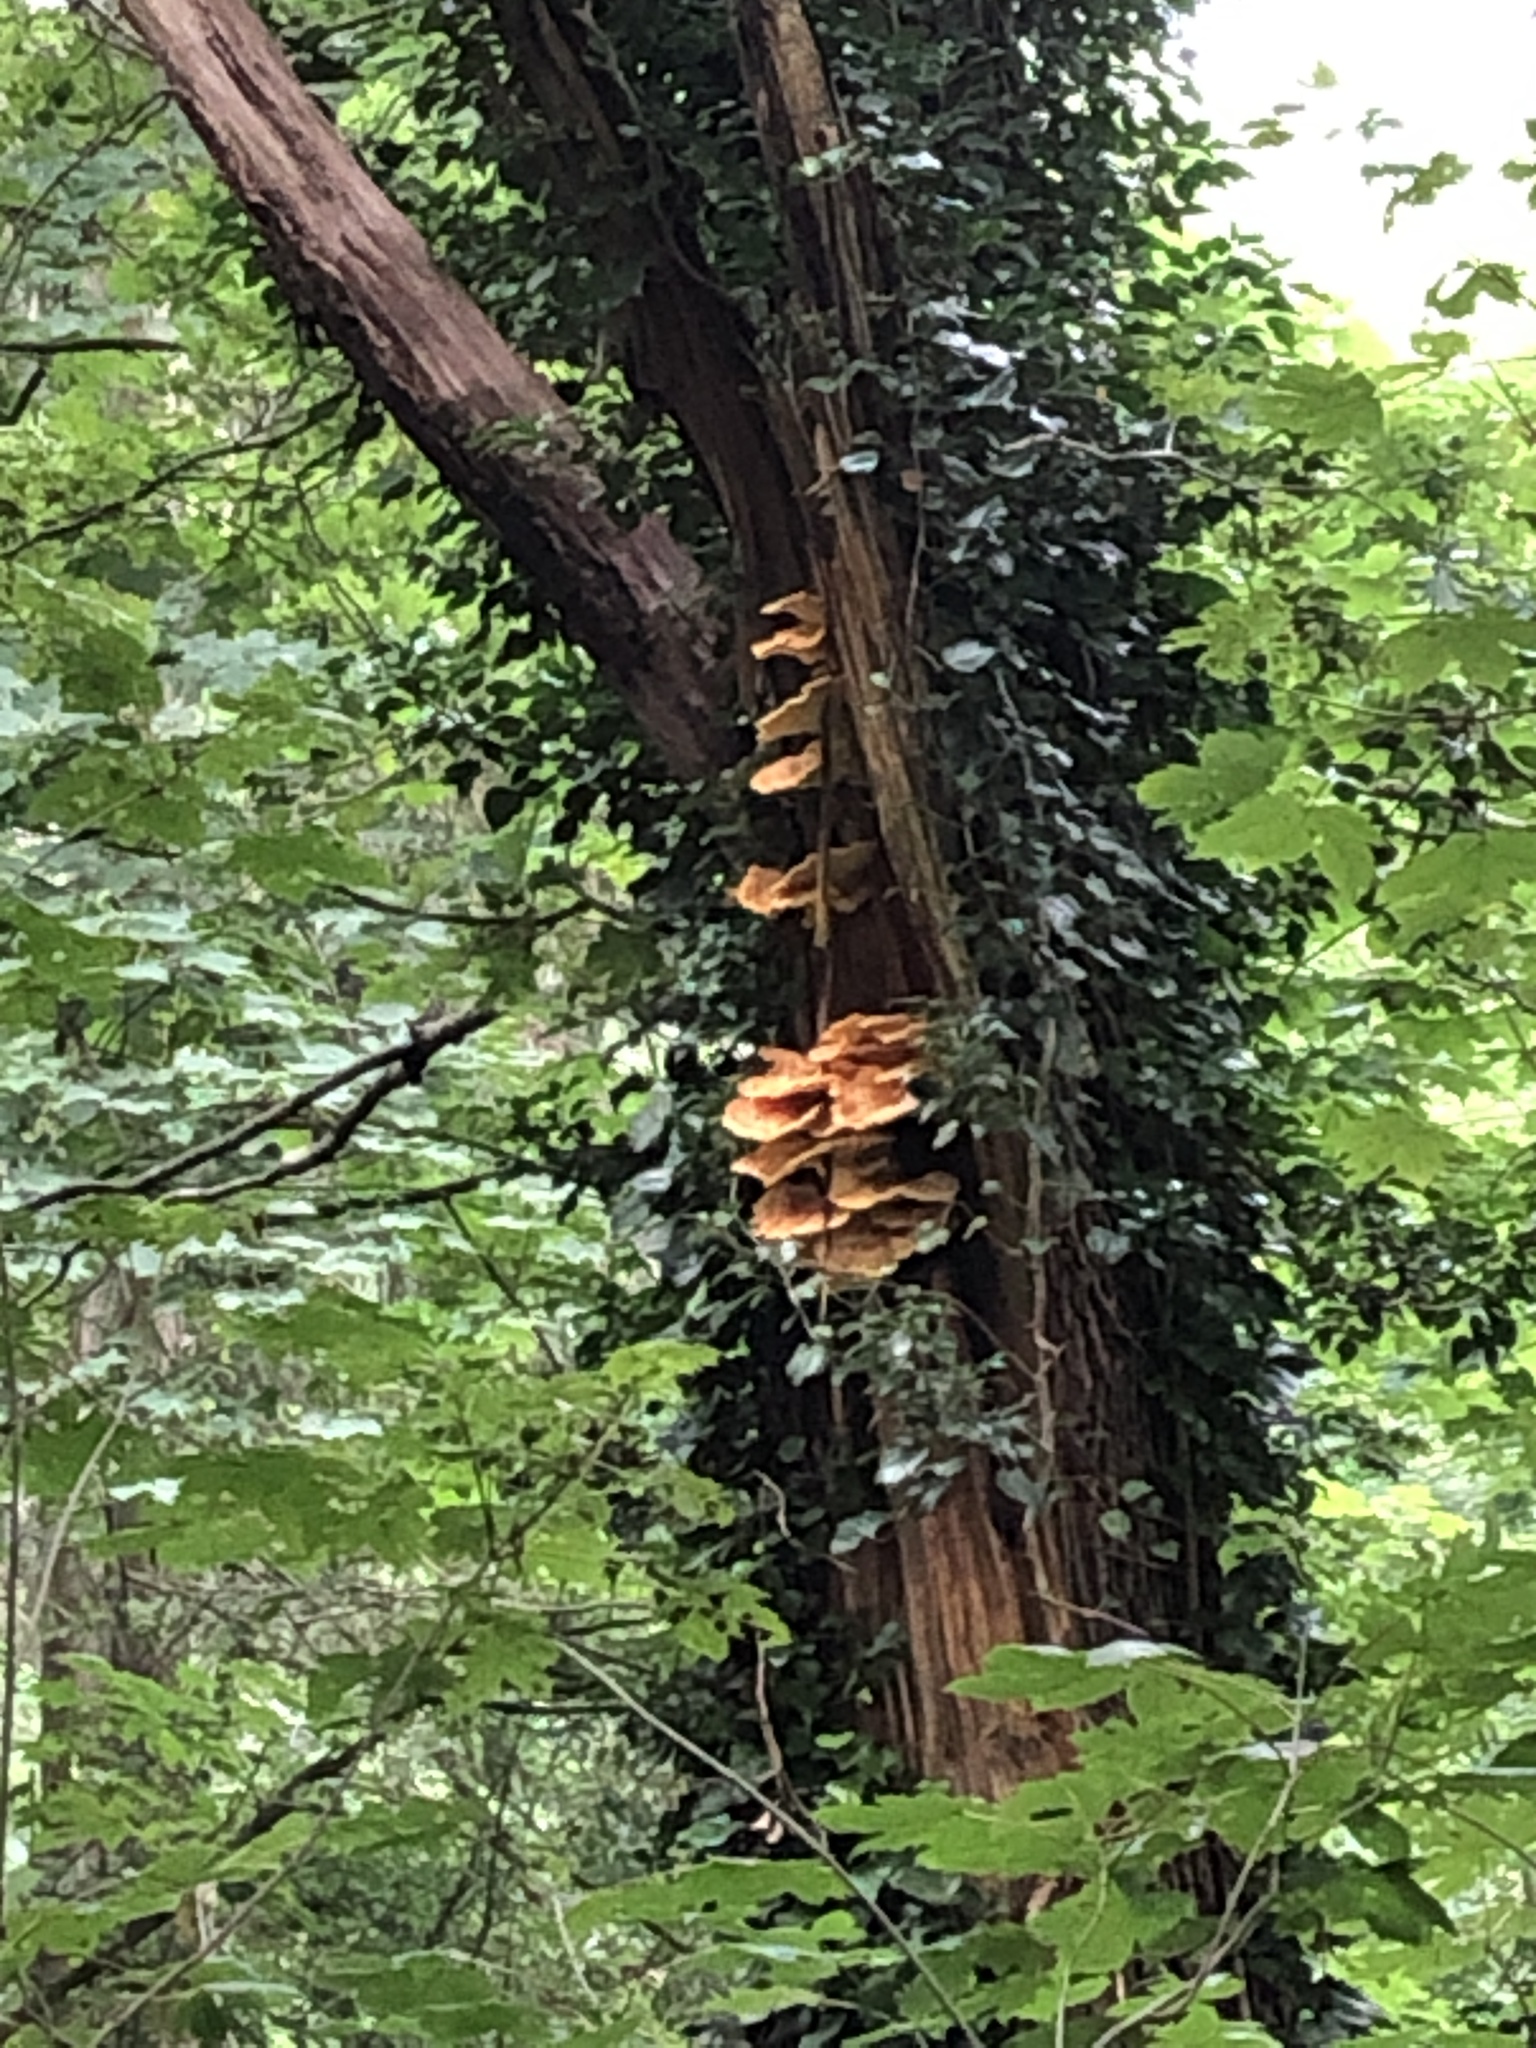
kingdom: Fungi
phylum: Basidiomycota
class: Agaricomycetes
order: Polyporales
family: Laetiporaceae
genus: Laetiporus
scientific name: Laetiporus sulphureus
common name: Chicken of the woods
